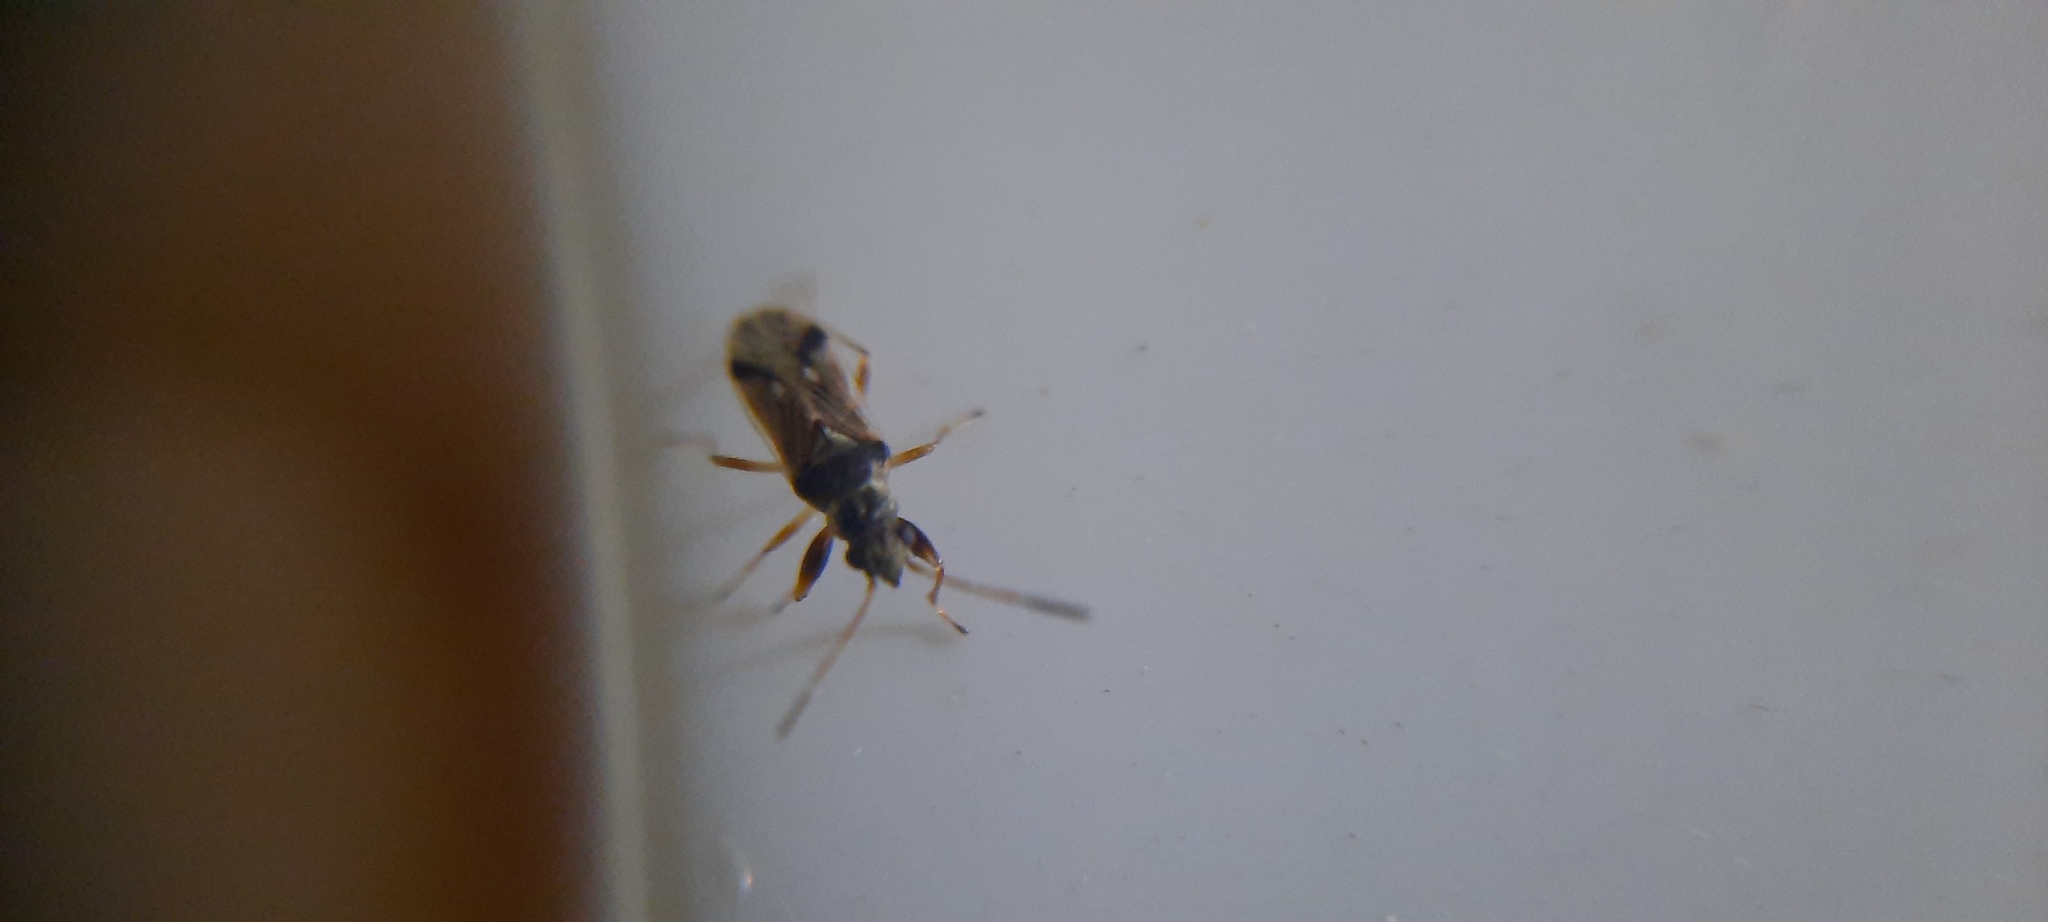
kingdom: Animalia
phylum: Arthropoda
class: Insecta
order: Hemiptera
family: Rhyparochromidae
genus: Pseudopachybrachius
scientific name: Pseudopachybrachius vinctus
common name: Dirt-colored seed bug
